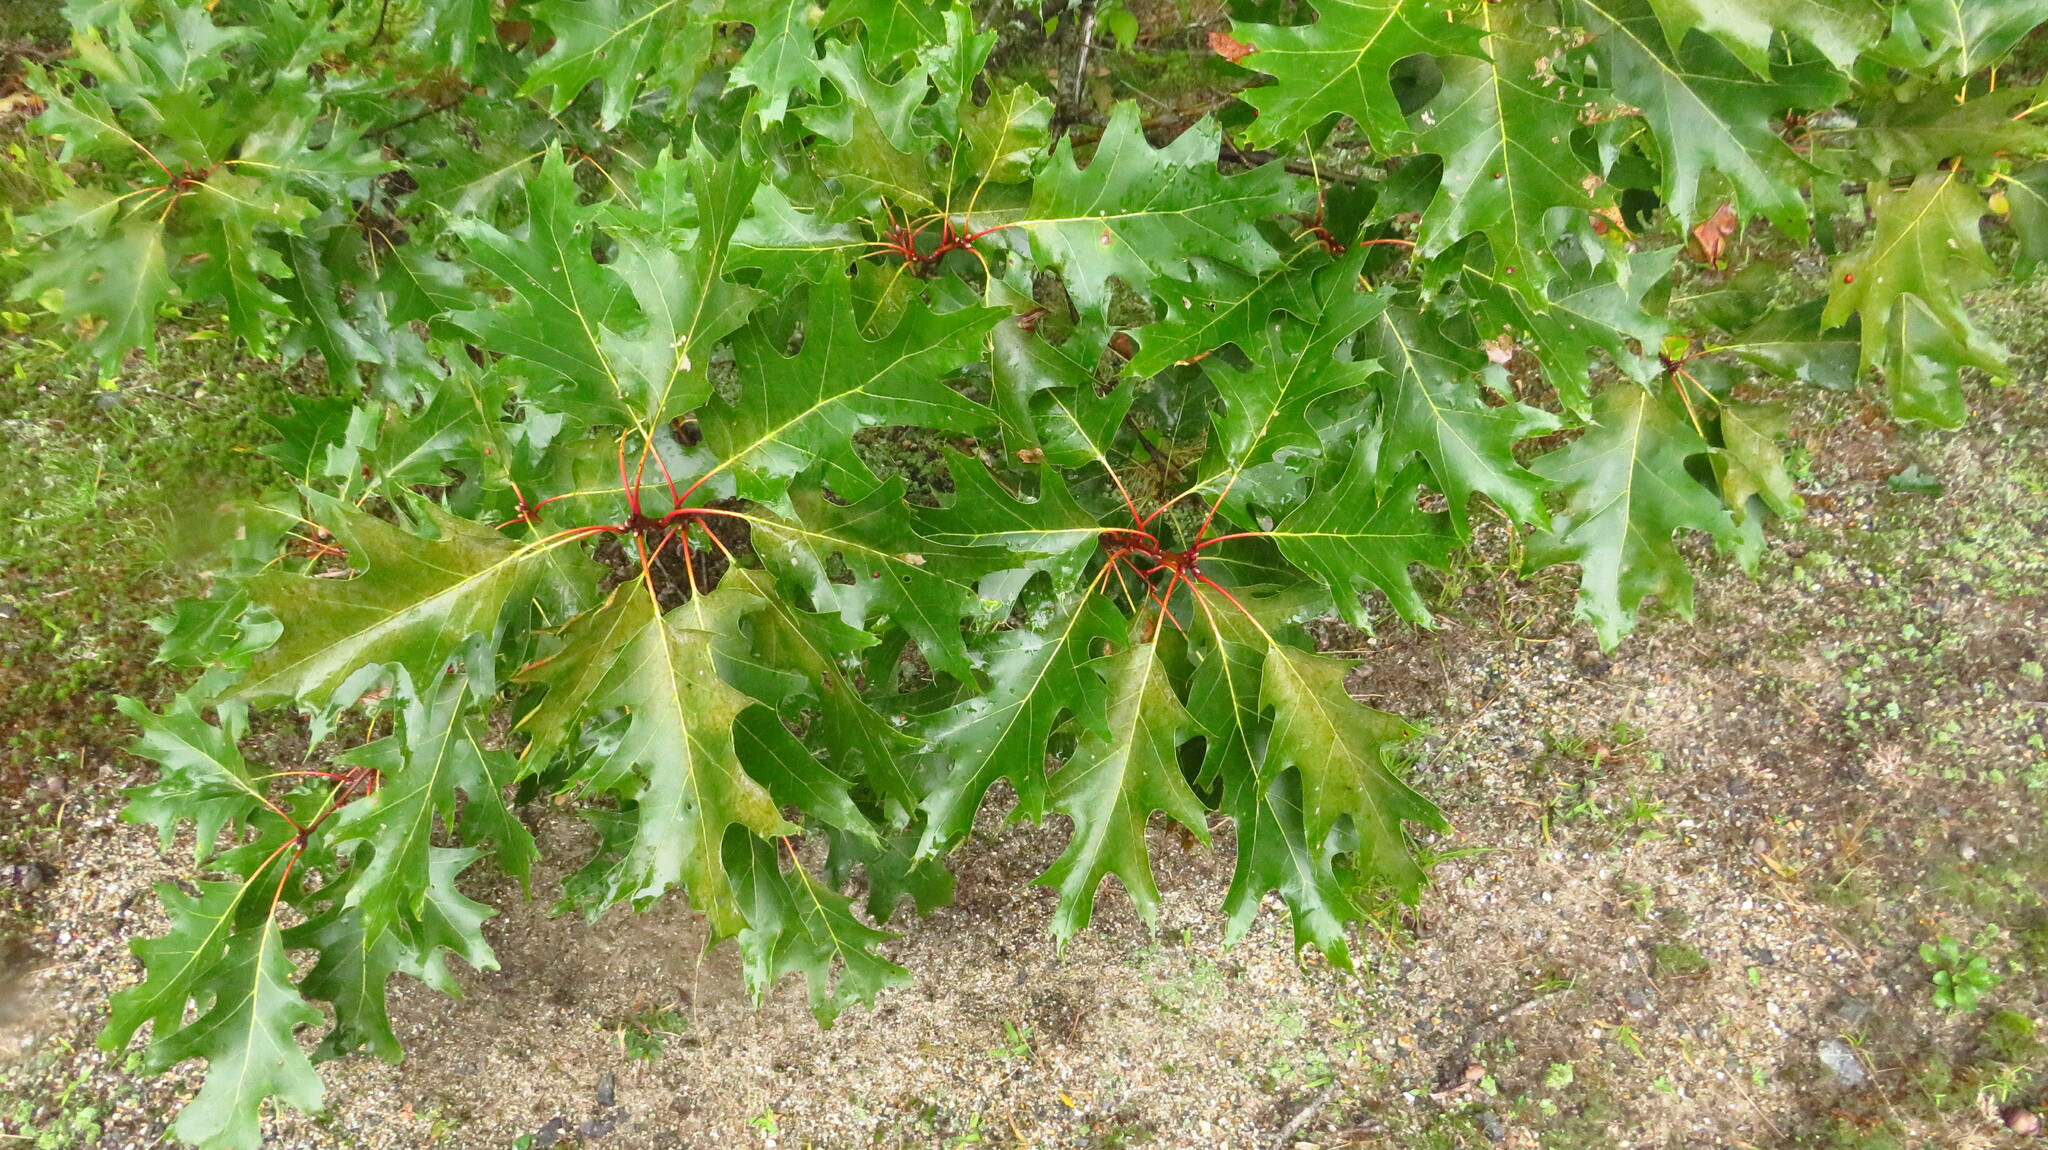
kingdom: Plantae
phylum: Tracheophyta
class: Magnoliopsida
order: Fagales
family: Fagaceae
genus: Quercus
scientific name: Quercus rubra
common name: Red oak
